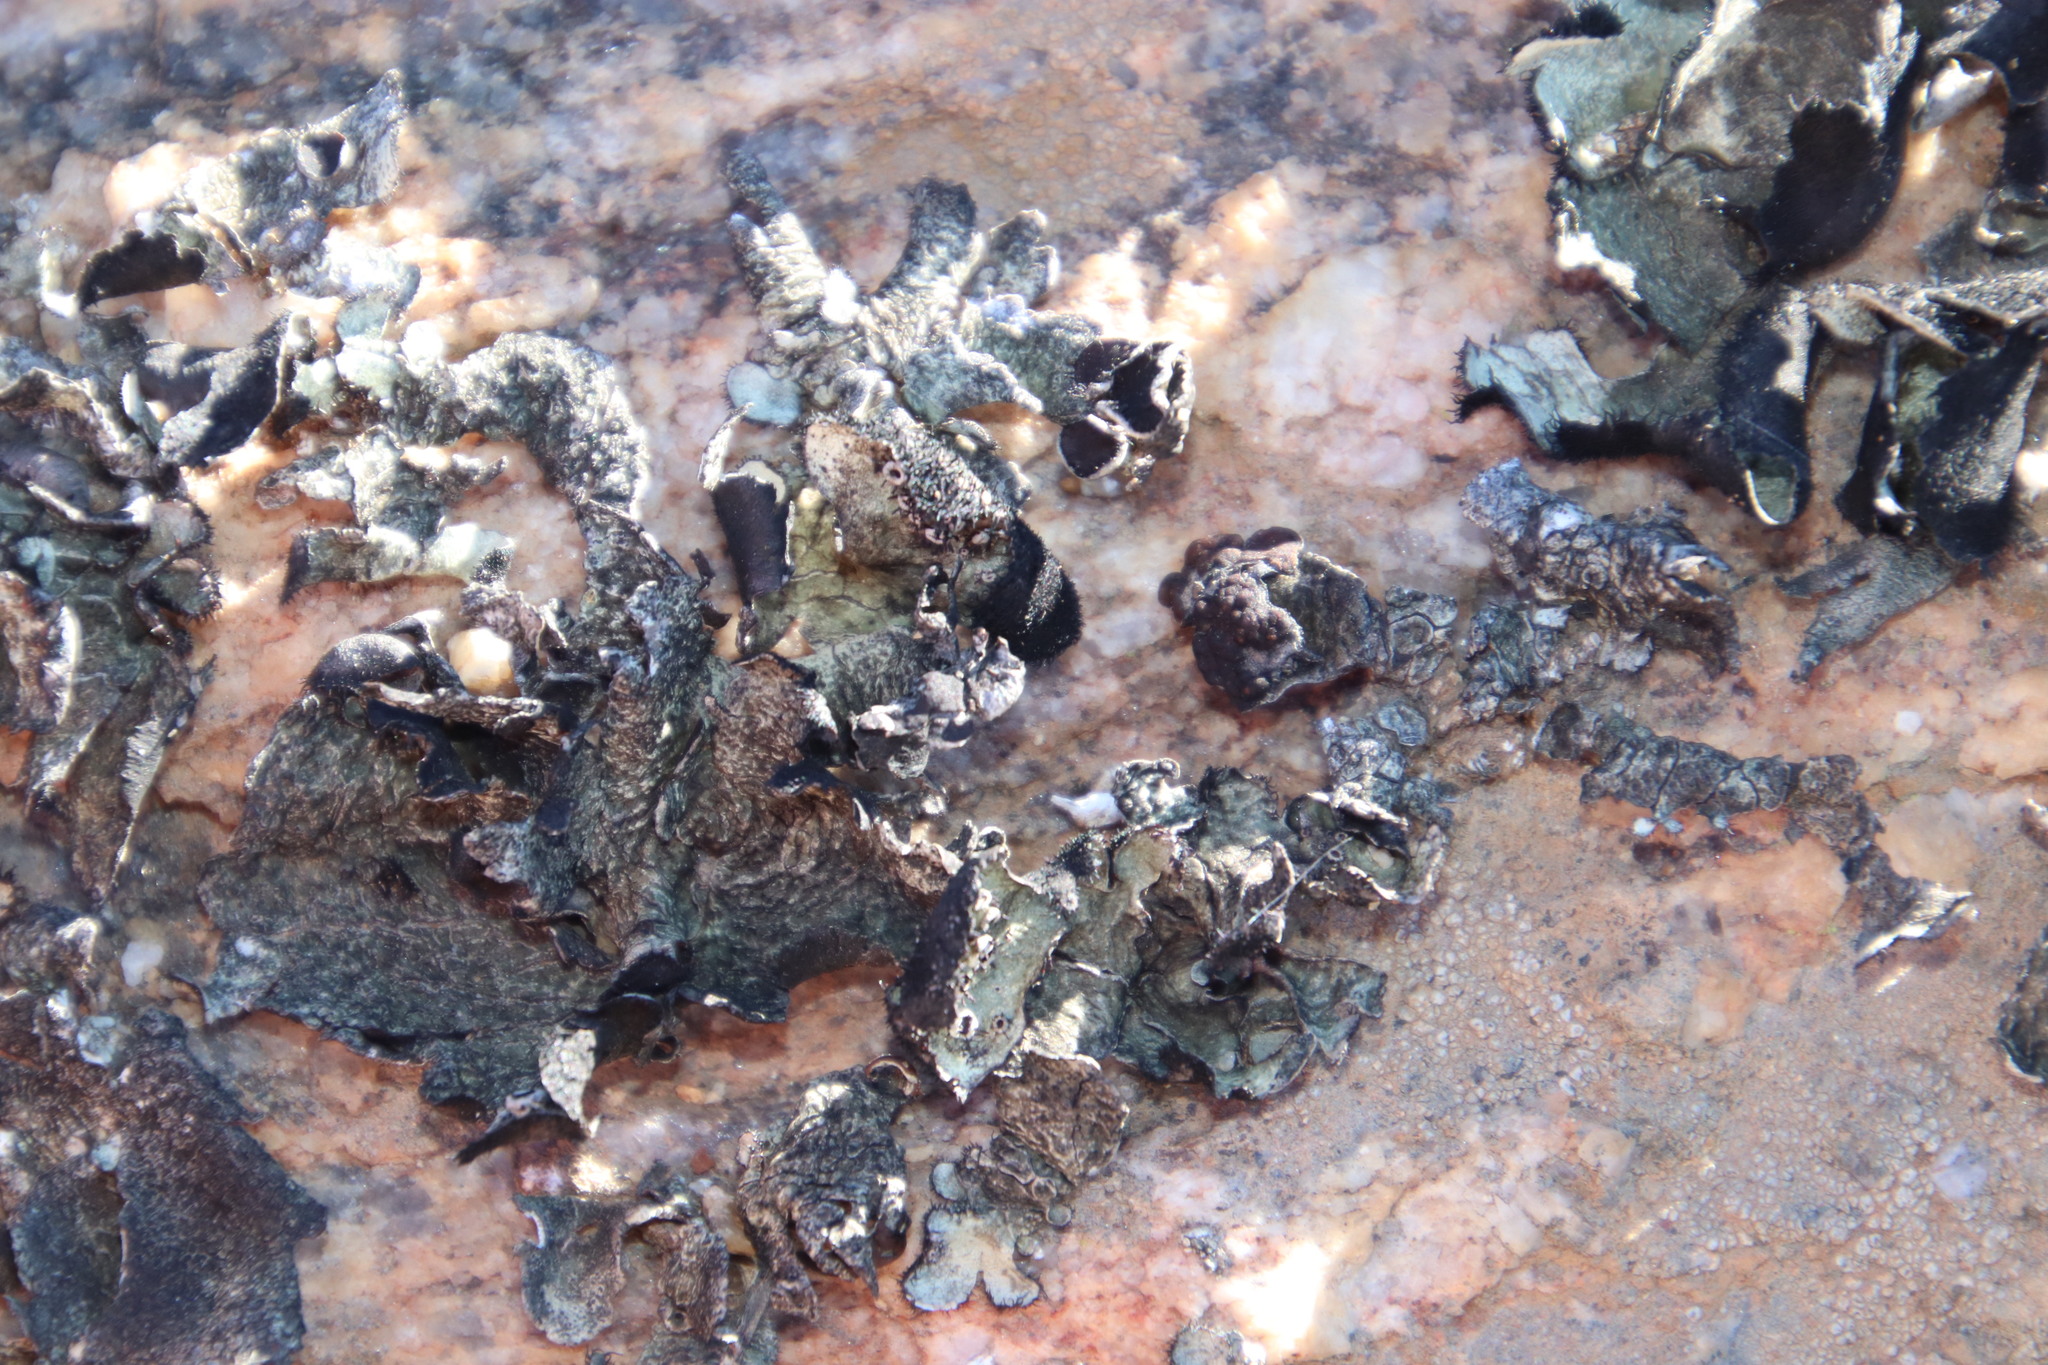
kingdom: Fungi
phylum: Ascomycota
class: Lecanoromycetes
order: Lecanorales
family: Parmeliaceae
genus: Xanthoparmelia
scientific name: Xanthoparmelia hottentotta
